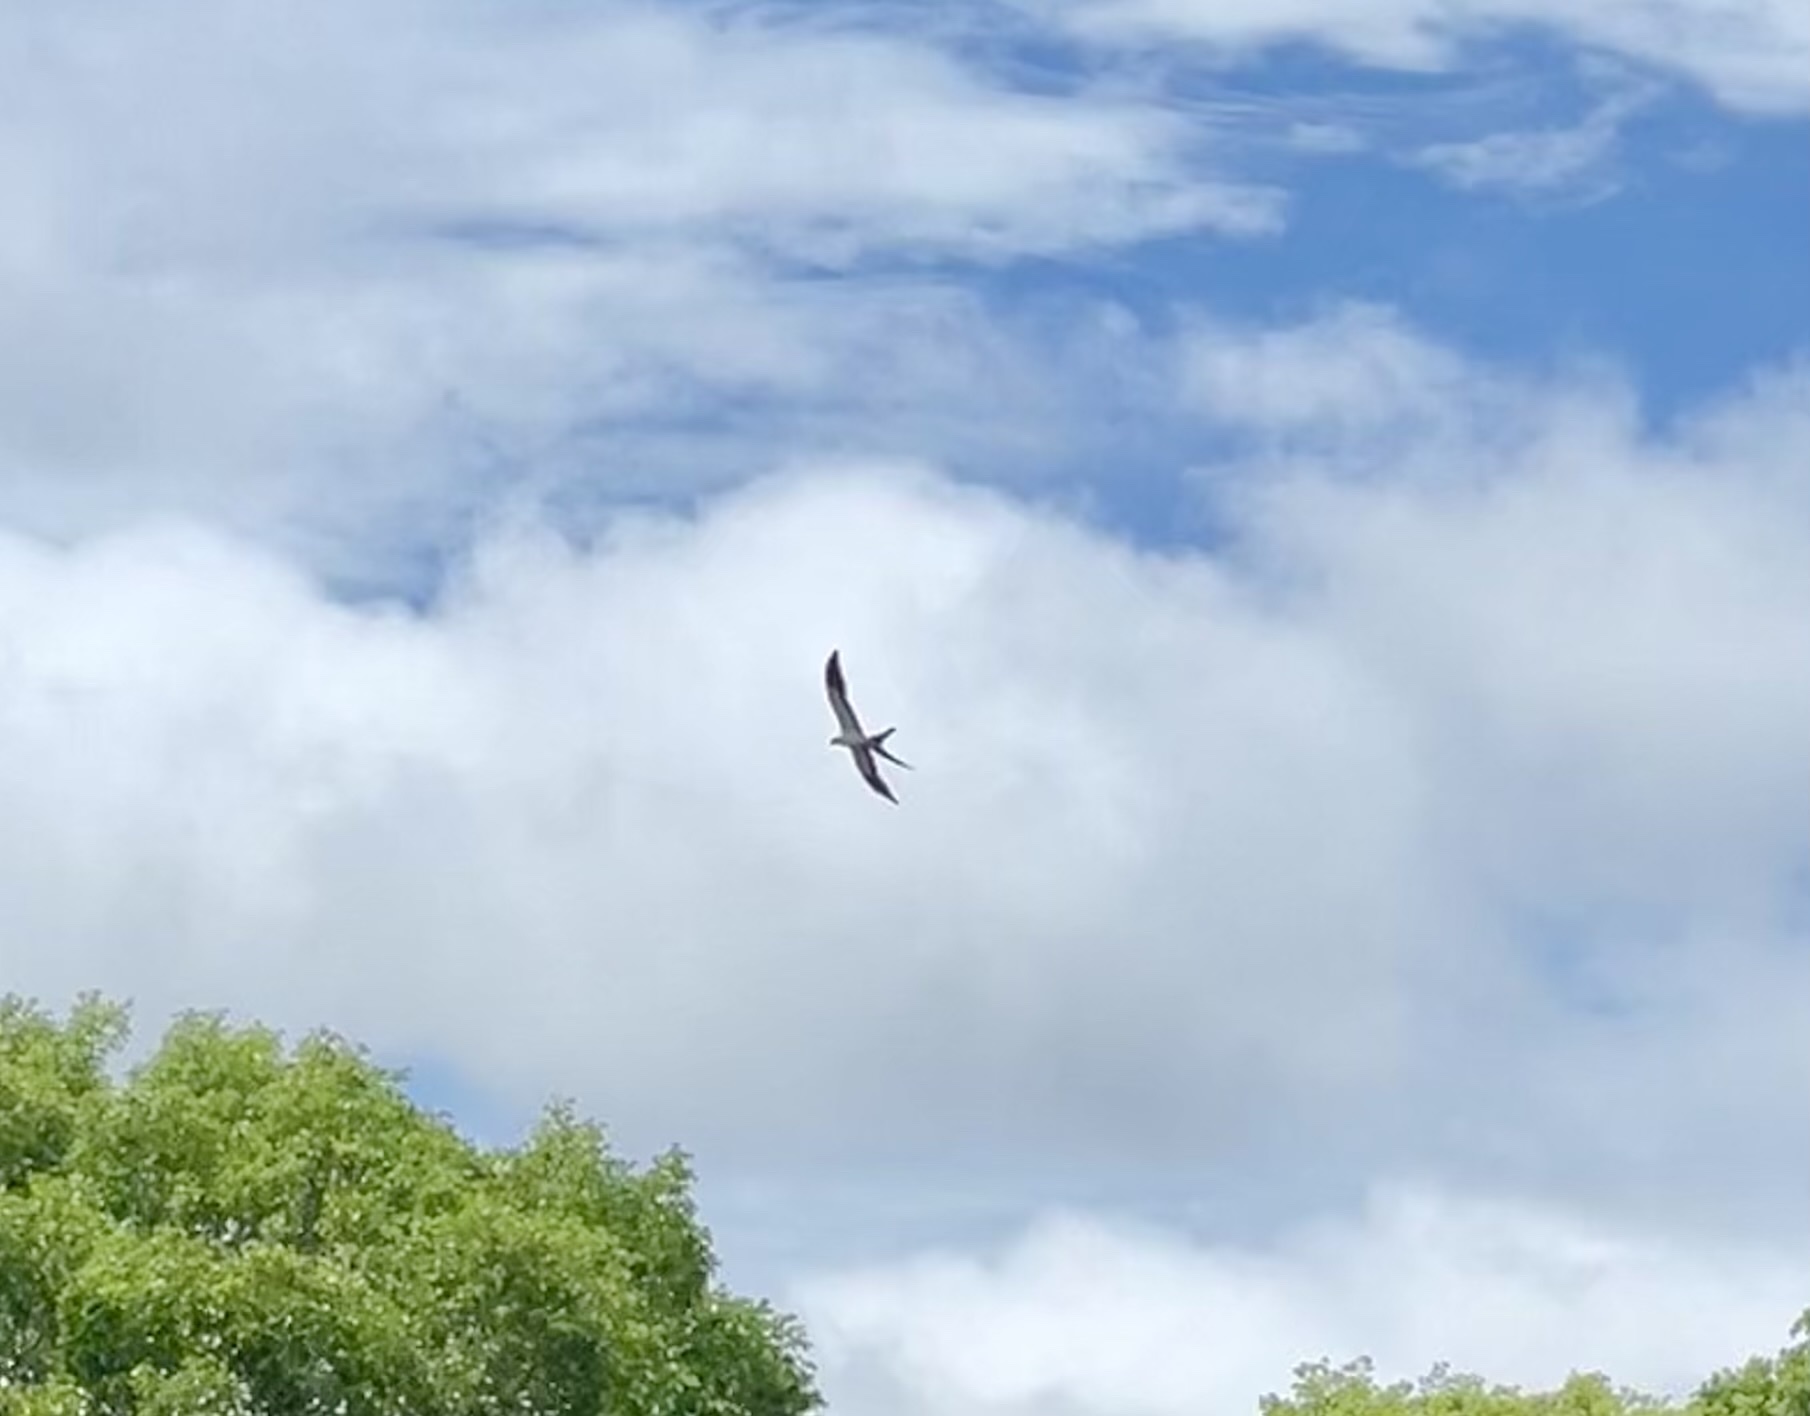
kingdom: Animalia
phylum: Chordata
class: Aves
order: Accipitriformes
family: Accipitridae
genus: Elanoides
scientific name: Elanoides forficatus
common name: Swallow-tailed kite
